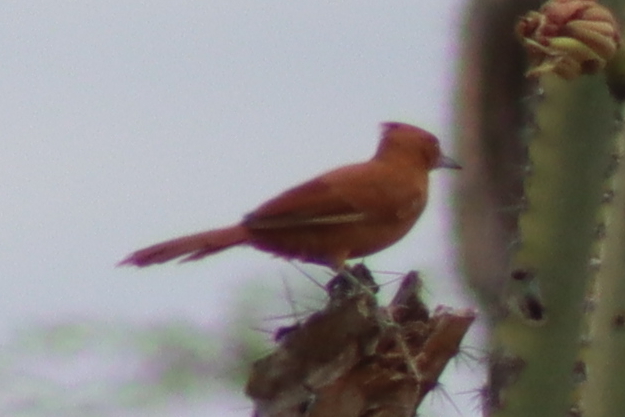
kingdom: Animalia
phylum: Chordata
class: Aves
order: Passeriformes
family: Furnariidae
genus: Pseudoseisura
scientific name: Pseudoseisura cristata
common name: Caatinga cacholote
